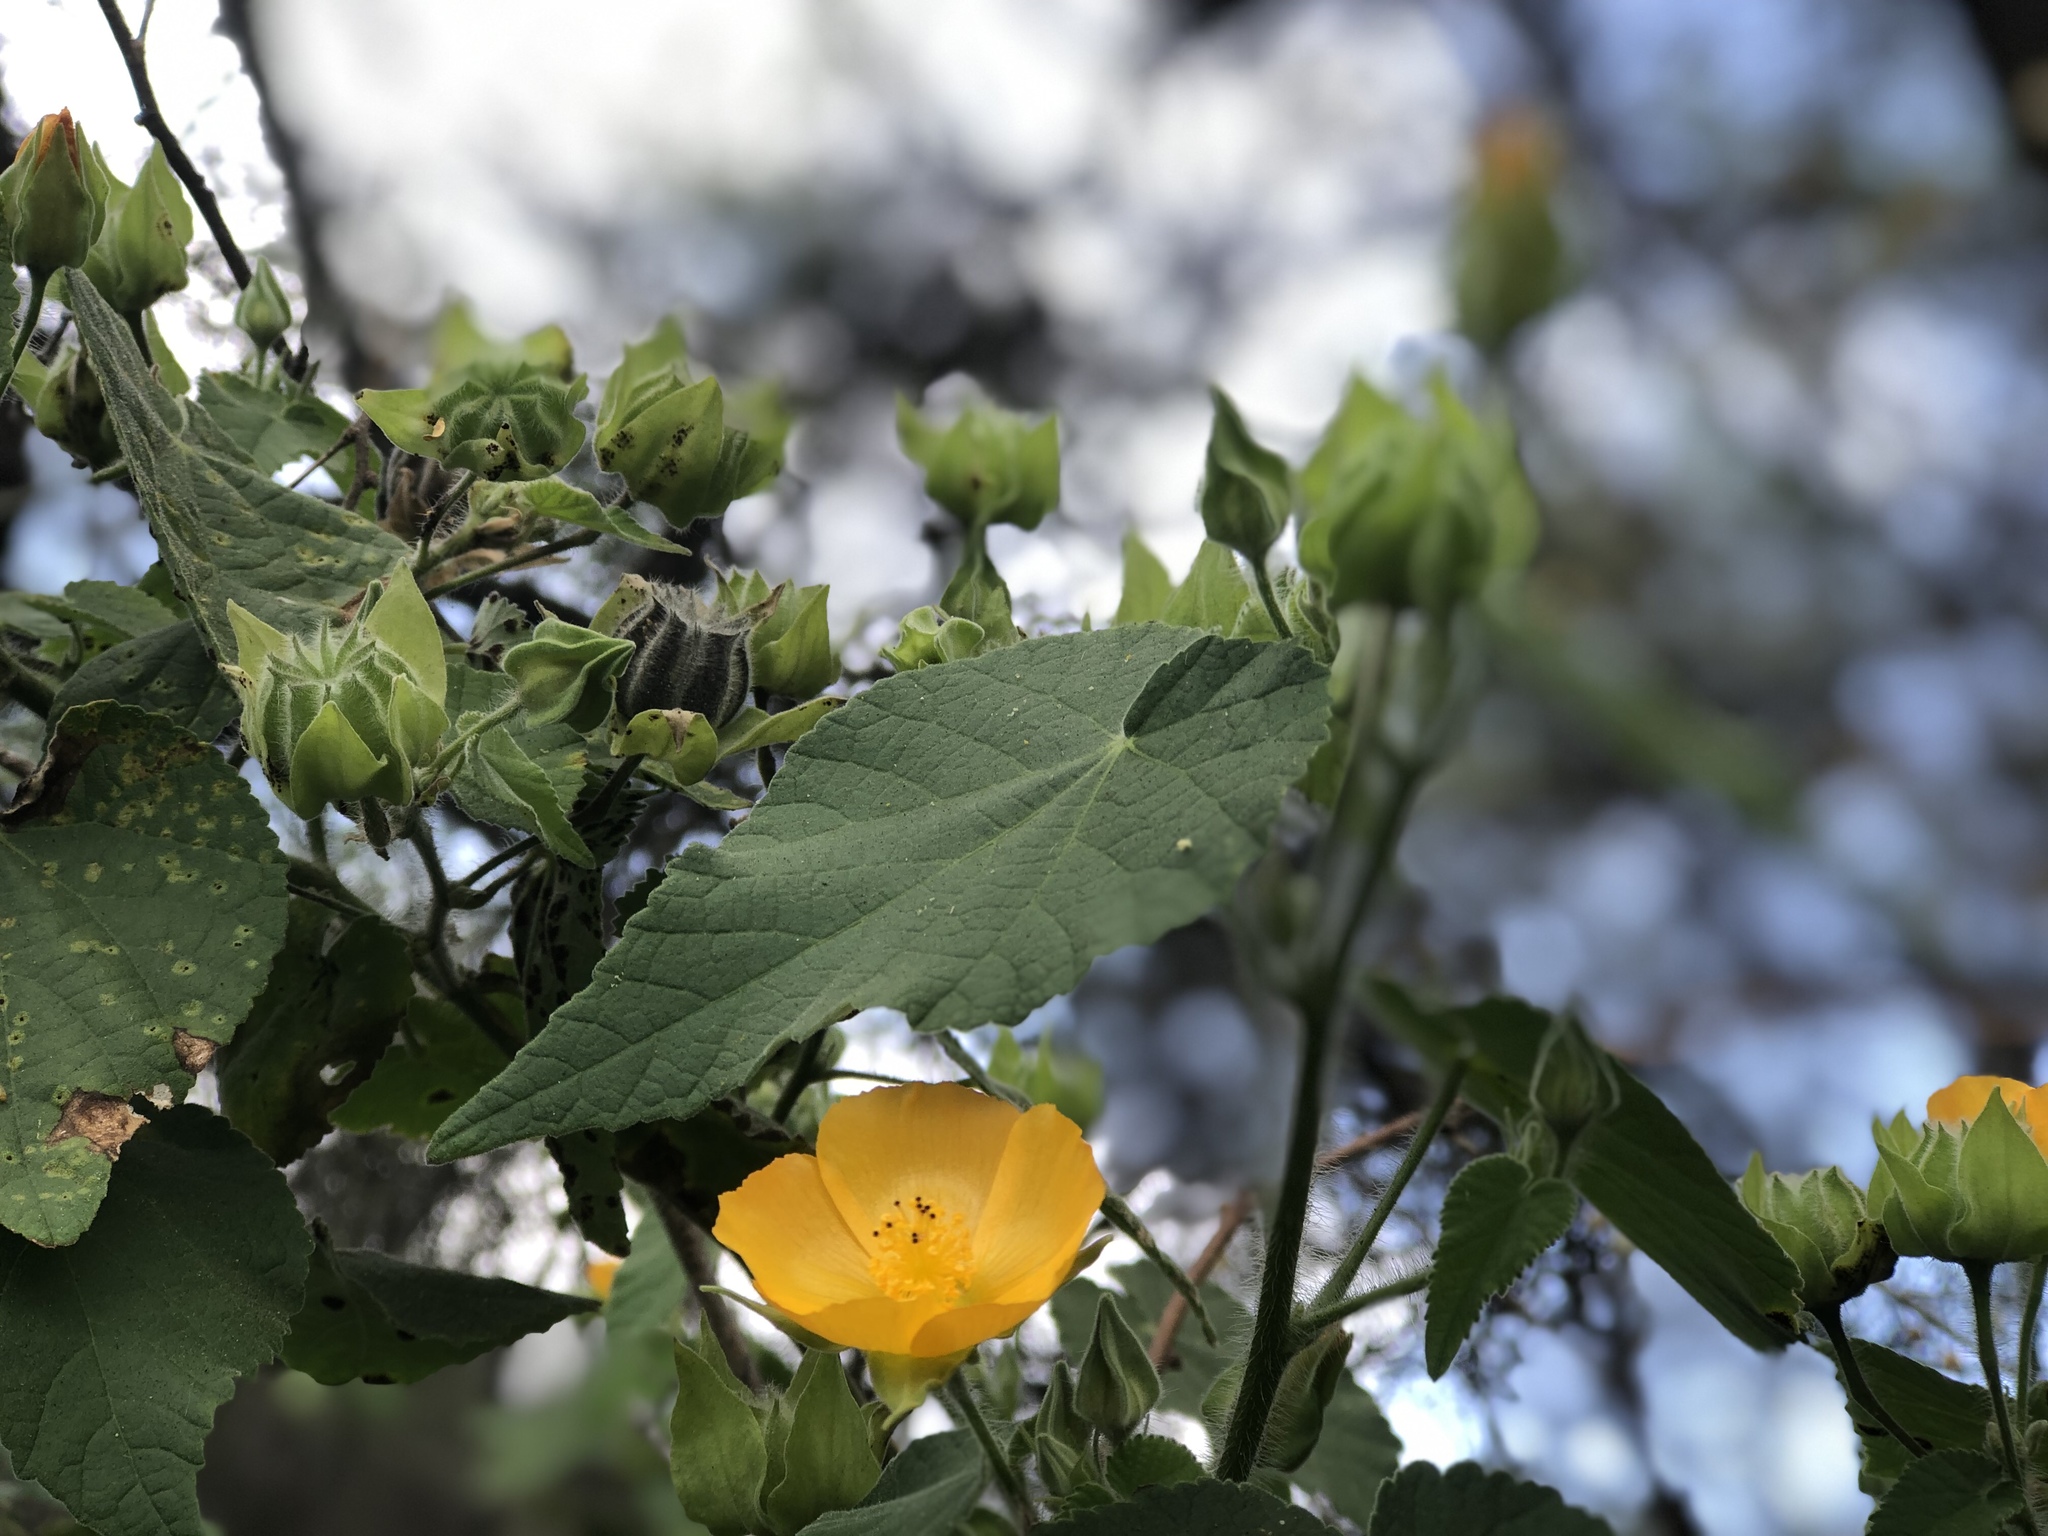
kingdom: Plantae
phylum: Tracheophyta
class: Magnoliopsida
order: Malvales
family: Malvaceae
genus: Abutilon
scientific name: Abutilon grandifolium
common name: Hairy abutilon
